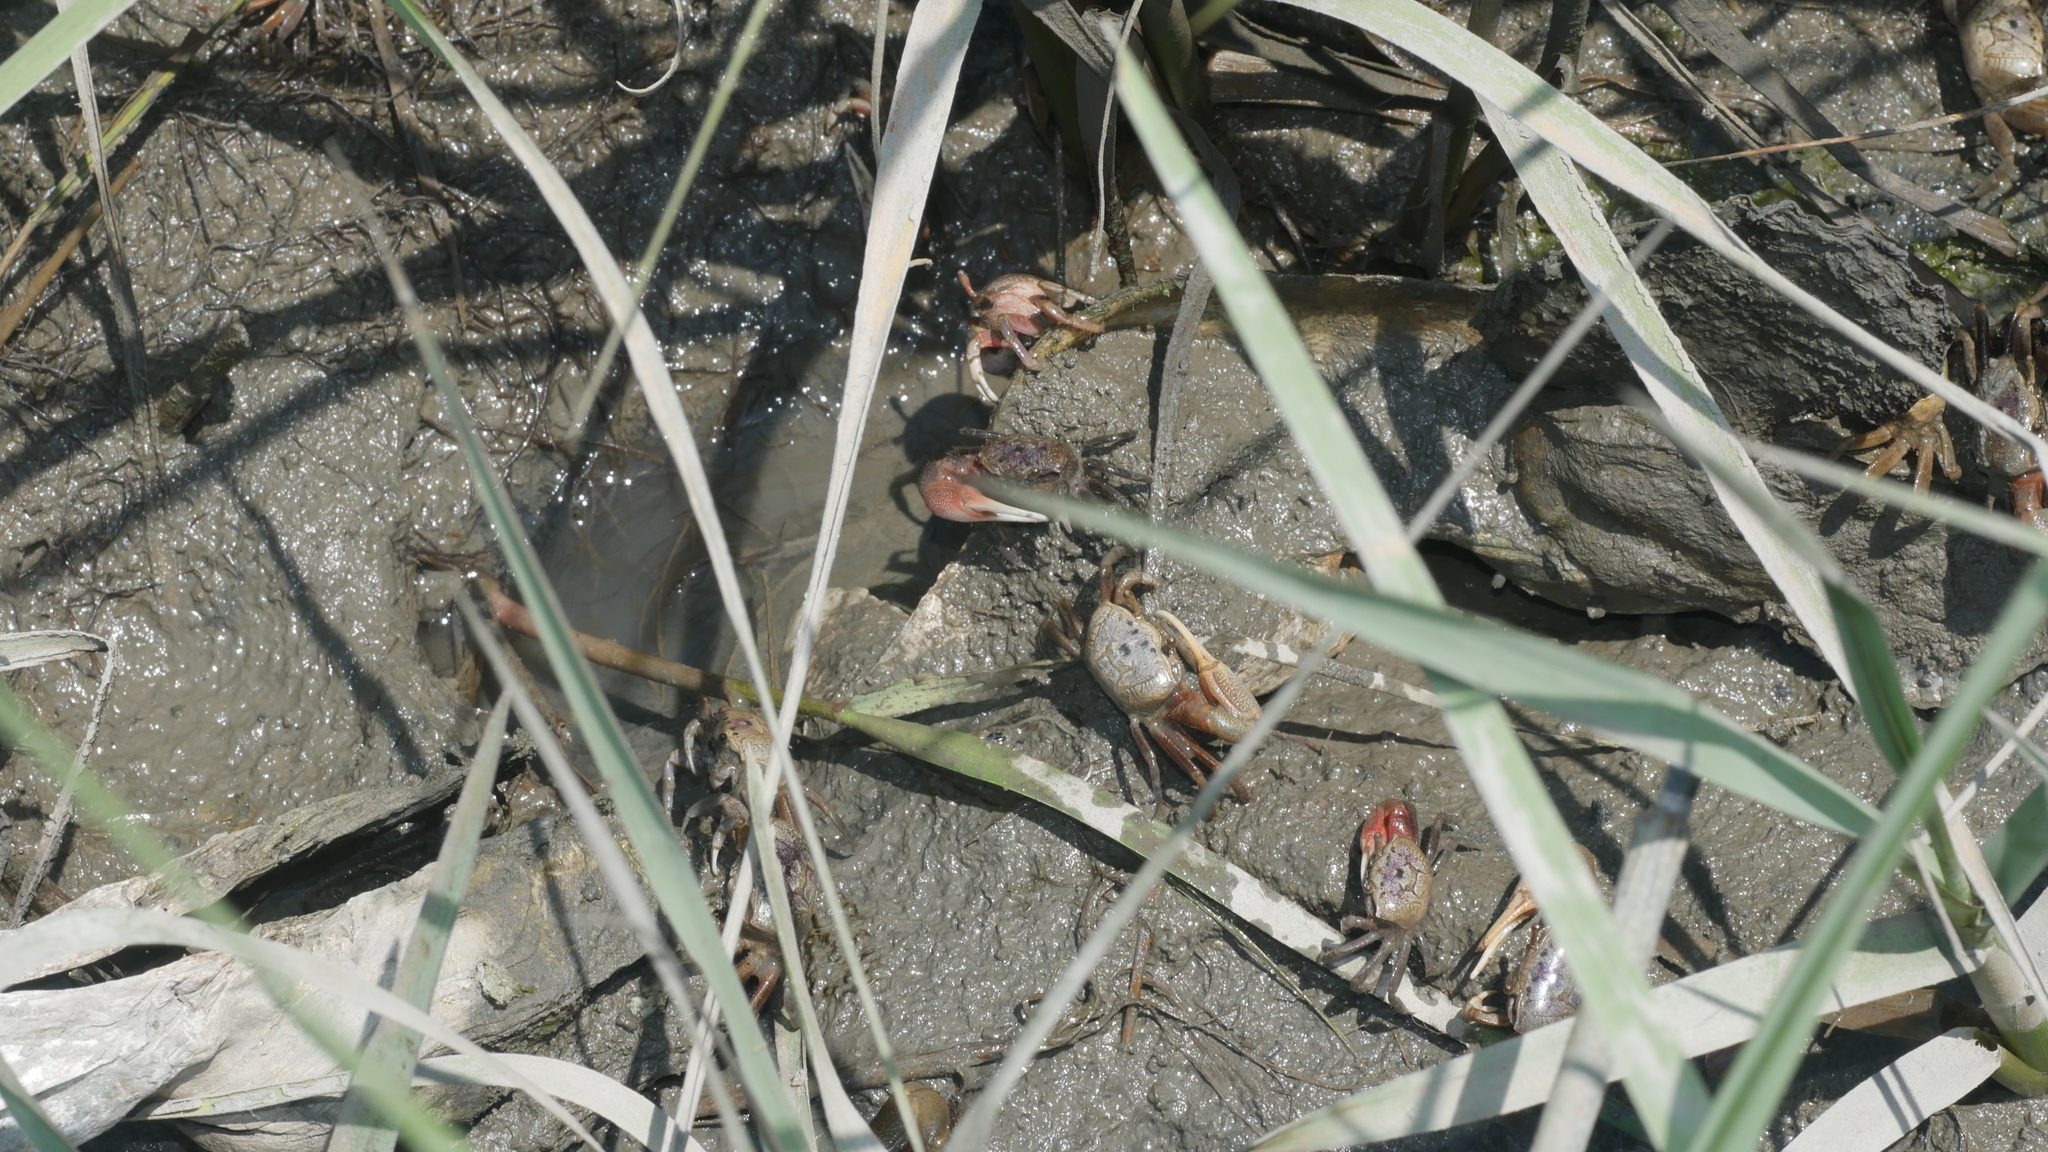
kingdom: Animalia
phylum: Arthropoda
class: Malacostraca
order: Decapoda
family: Ocypodidae
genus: Leptuca
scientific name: Leptuca pugilator
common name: Atlantic sand fiddler crab
